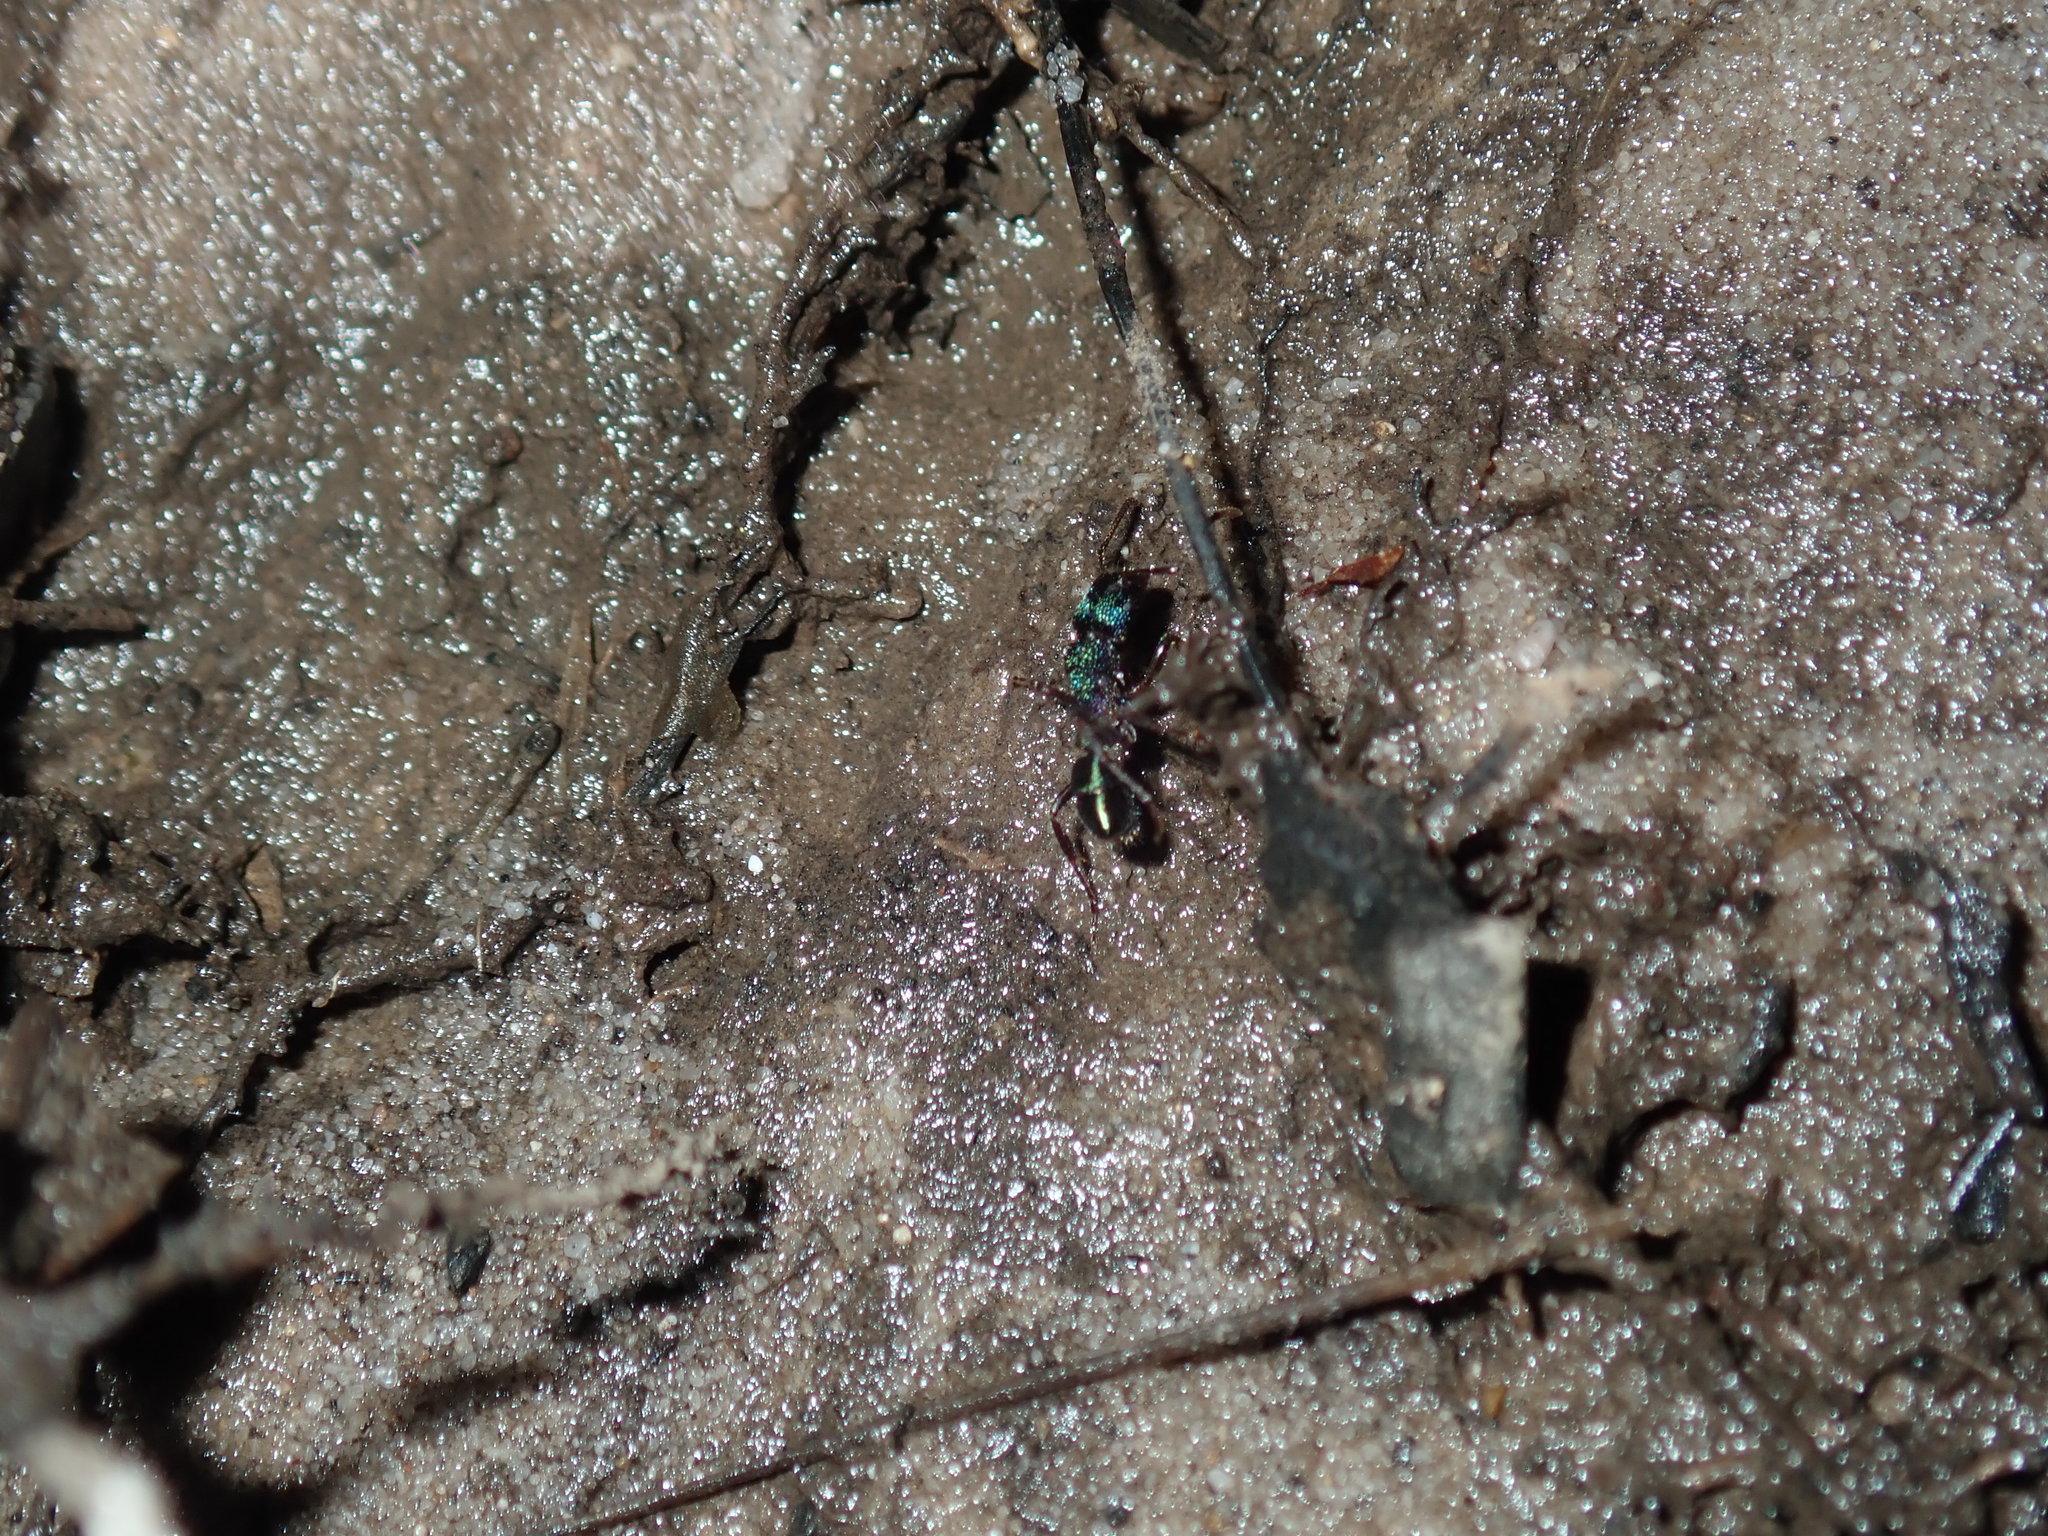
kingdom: Animalia
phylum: Arthropoda
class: Insecta
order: Hymenoptera
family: Formicidae
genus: Rhytidoponera
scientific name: Rhytidoponera metallica
